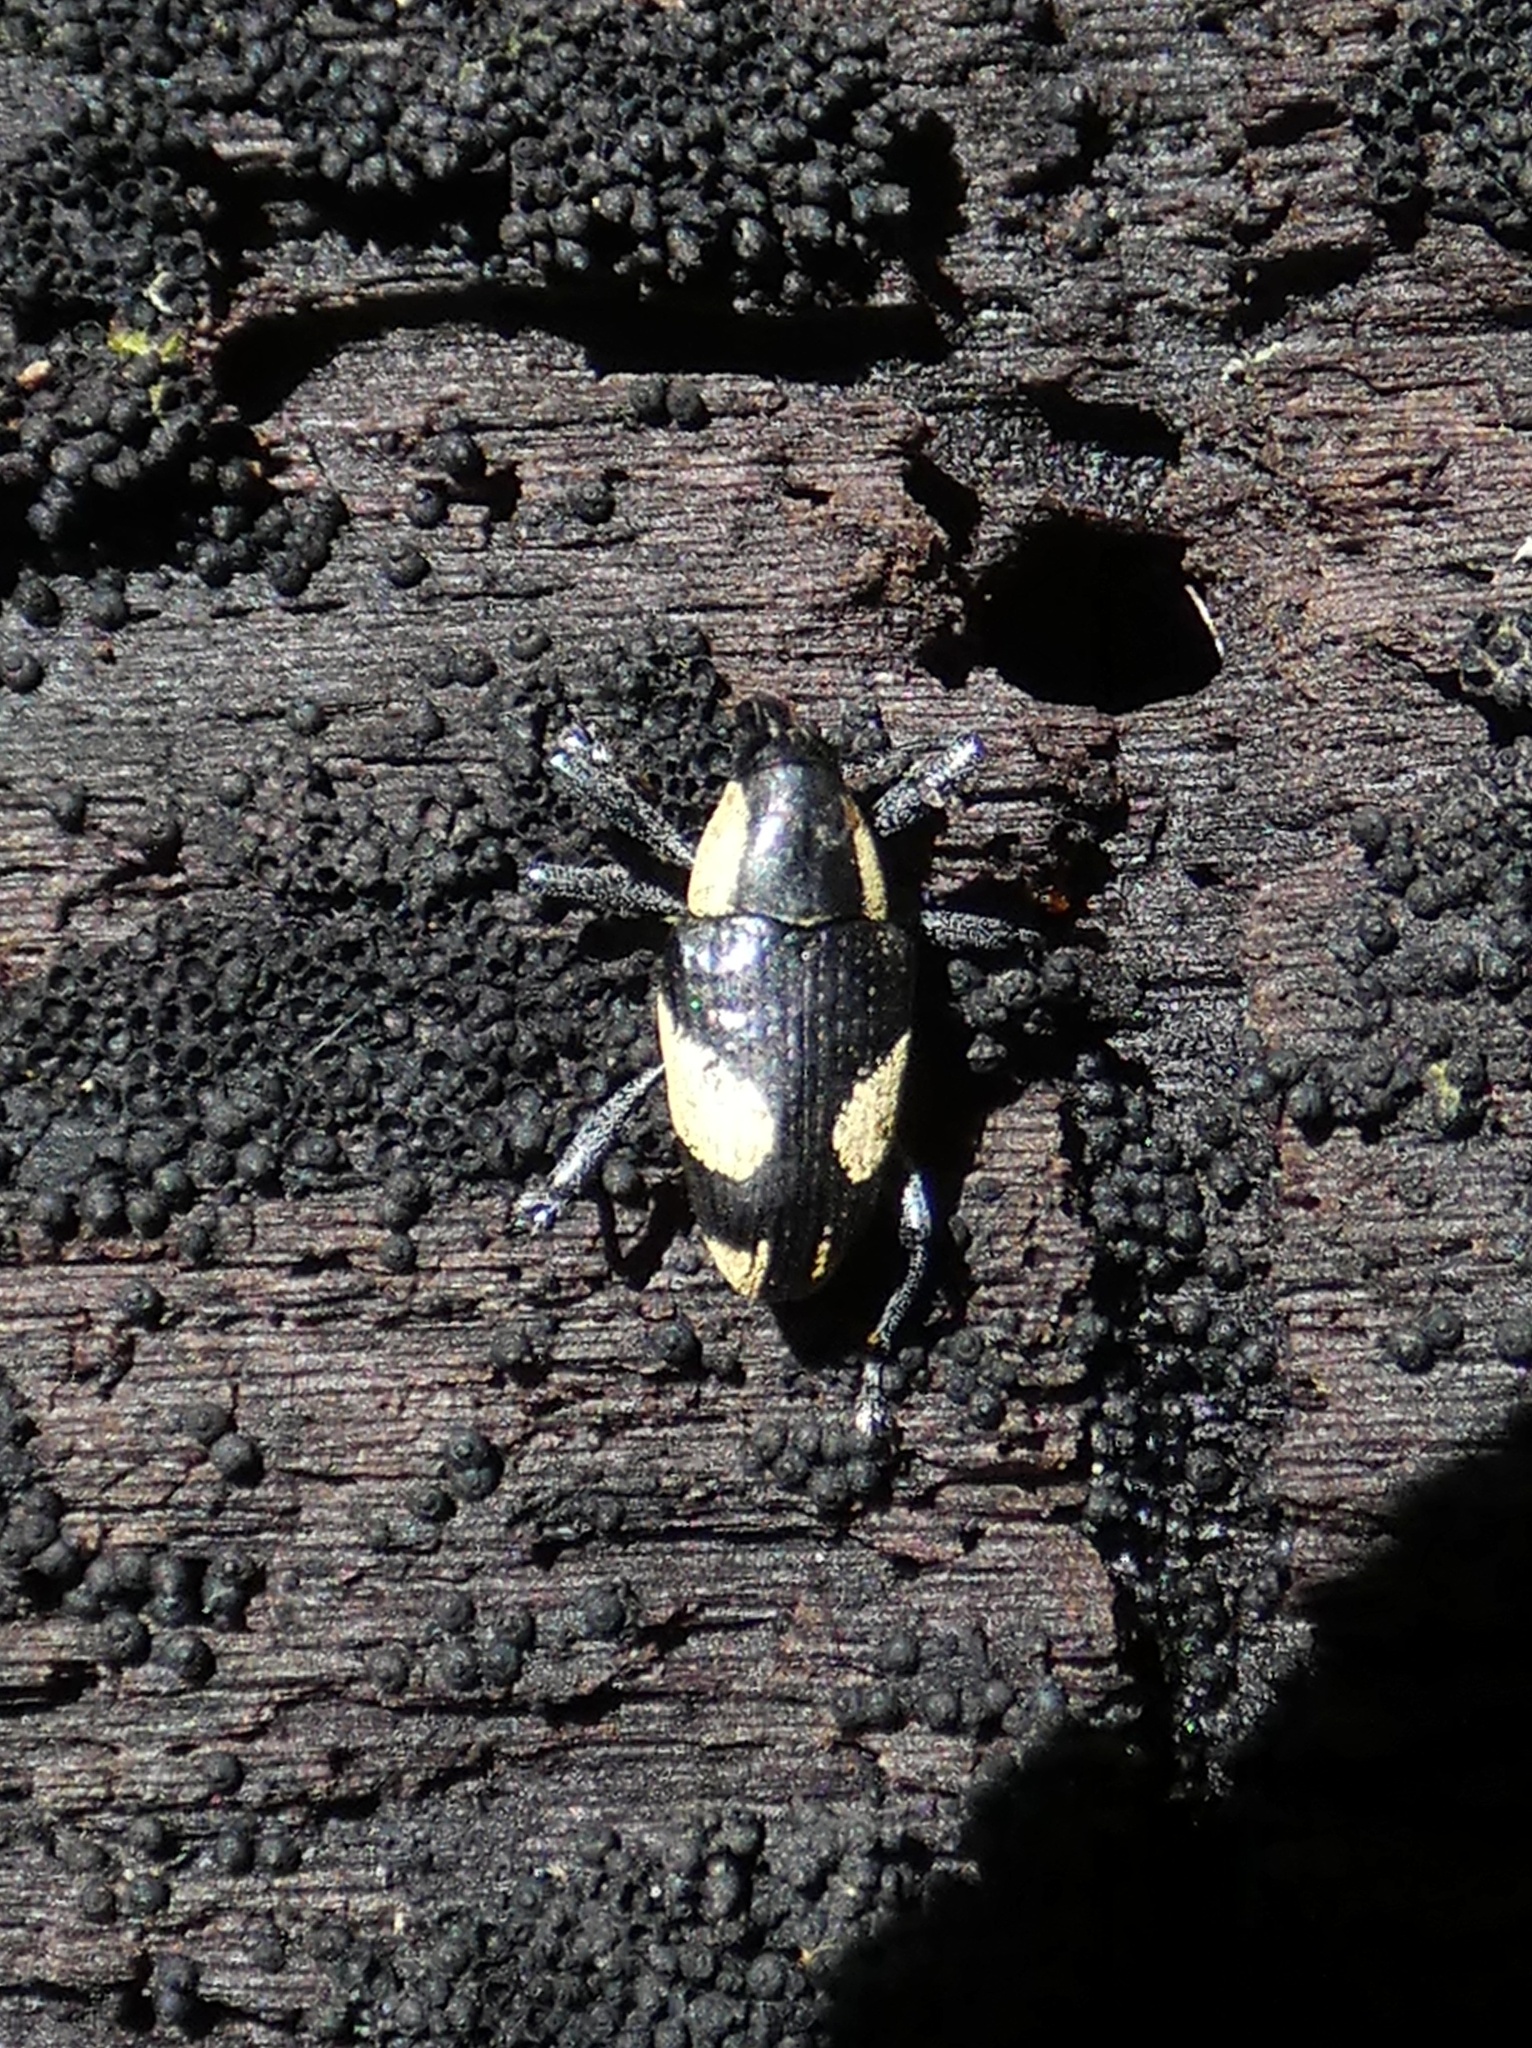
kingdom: Animalia
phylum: Arthropoda
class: Insecta
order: Coleoptera
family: Curculionidae
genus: Peridinetus
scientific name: Peridinetus cretaceus
